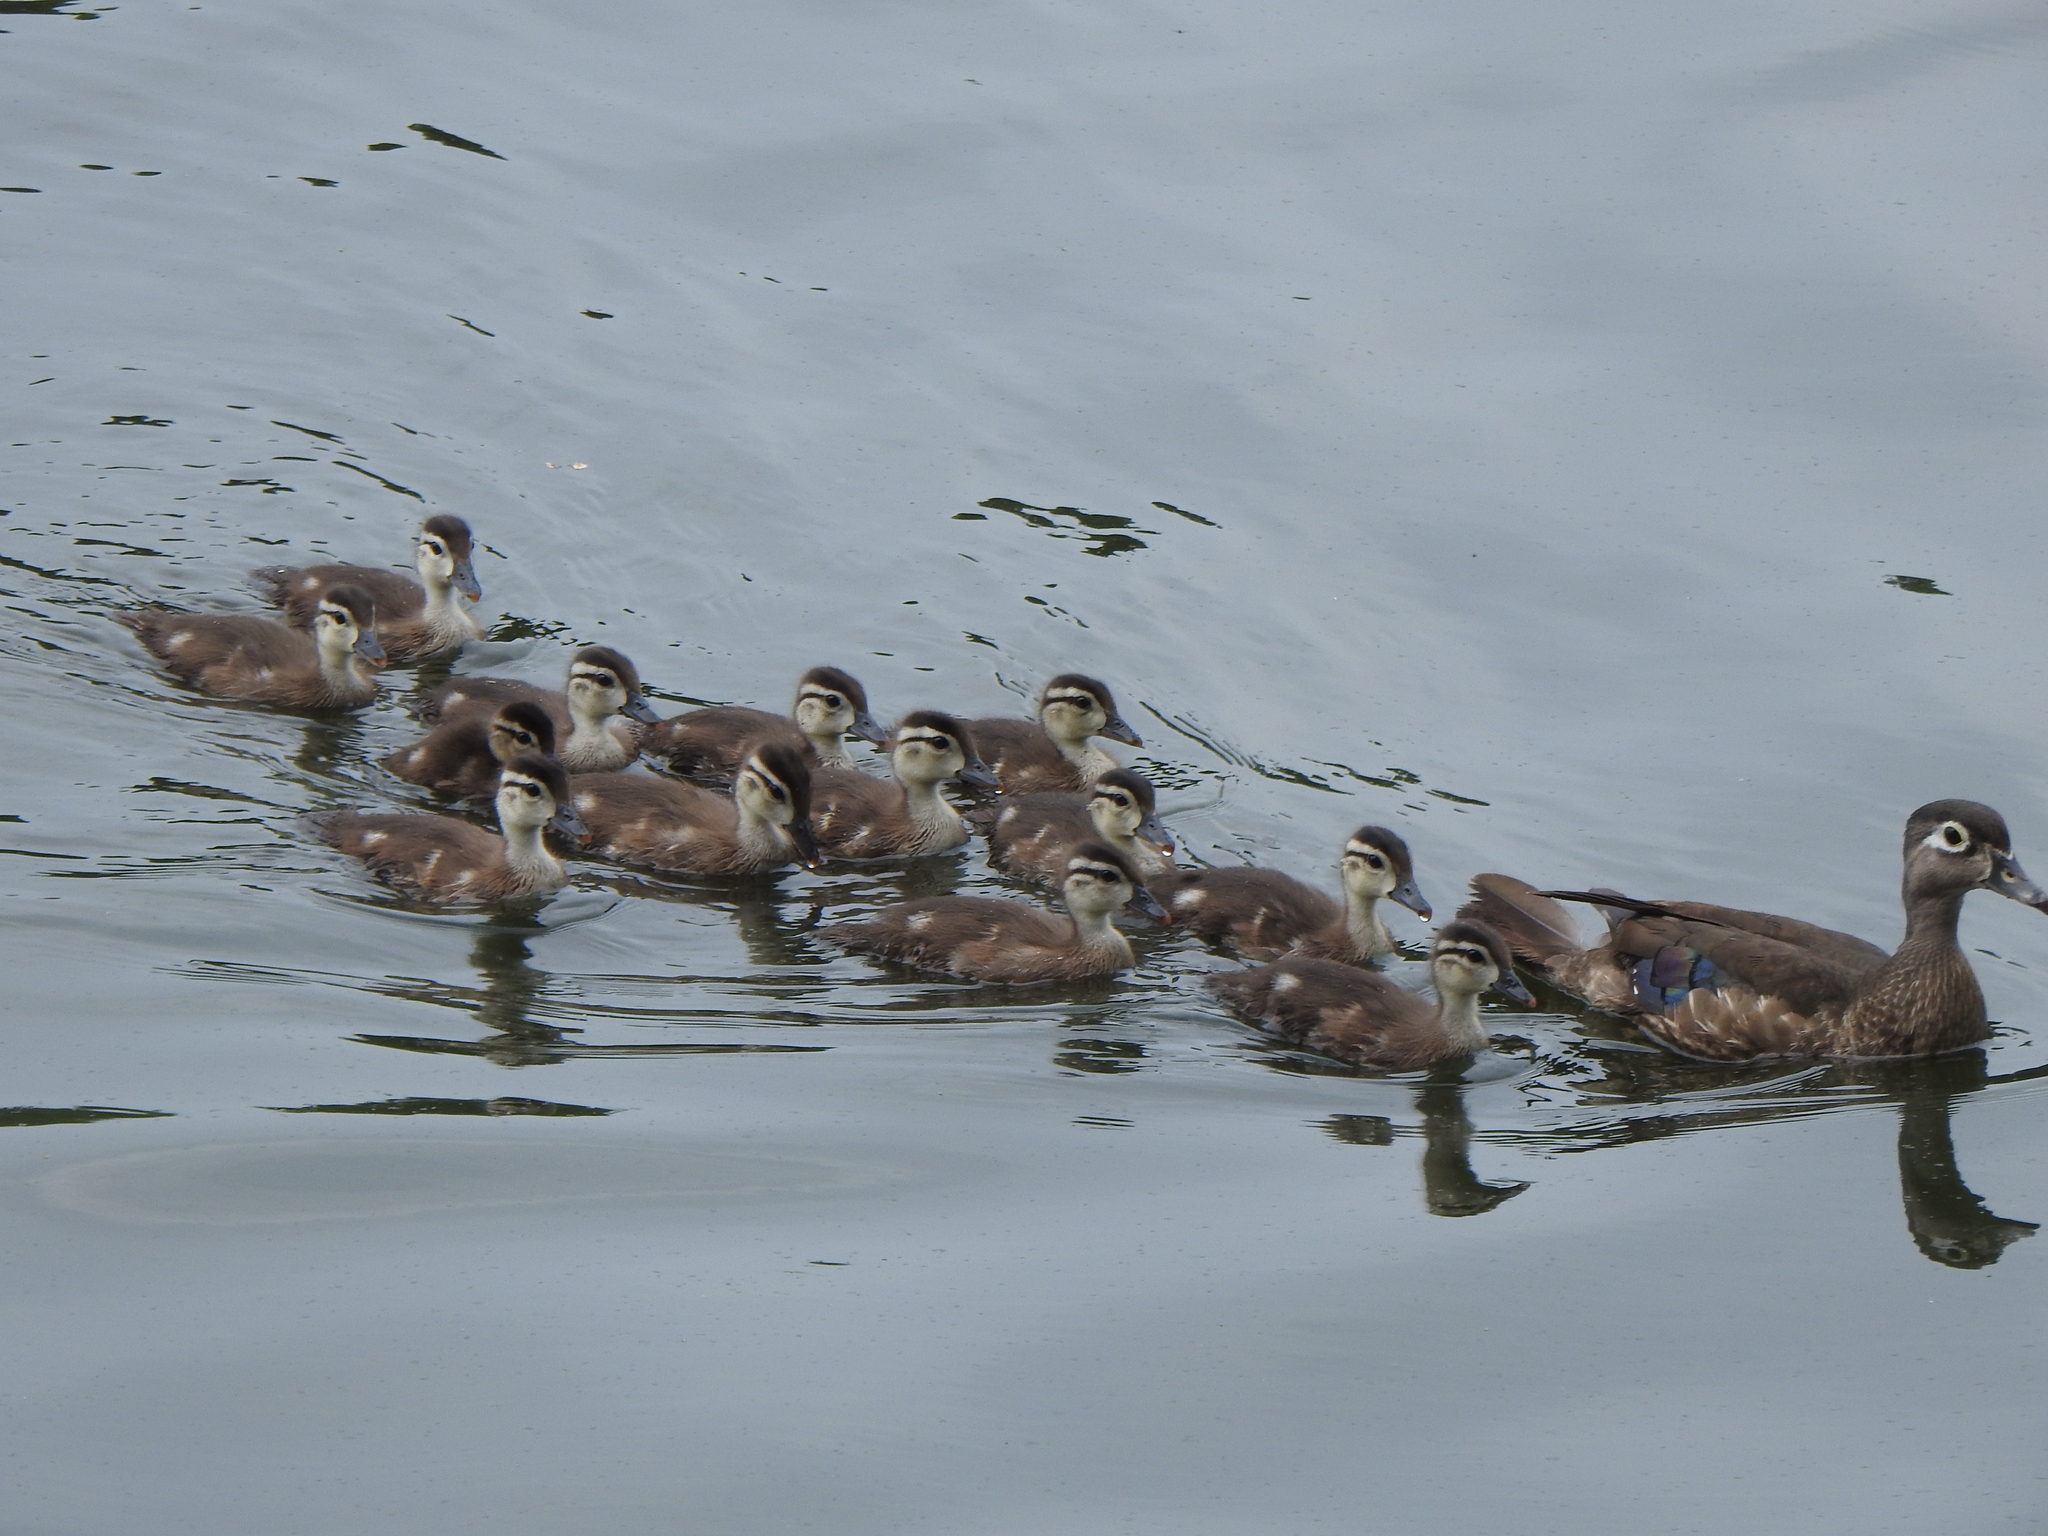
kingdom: Animalia
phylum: Chordata
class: Aves
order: Anseriformes
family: Anatidae
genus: Aix
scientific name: Aix sponsa
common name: Wood duck
